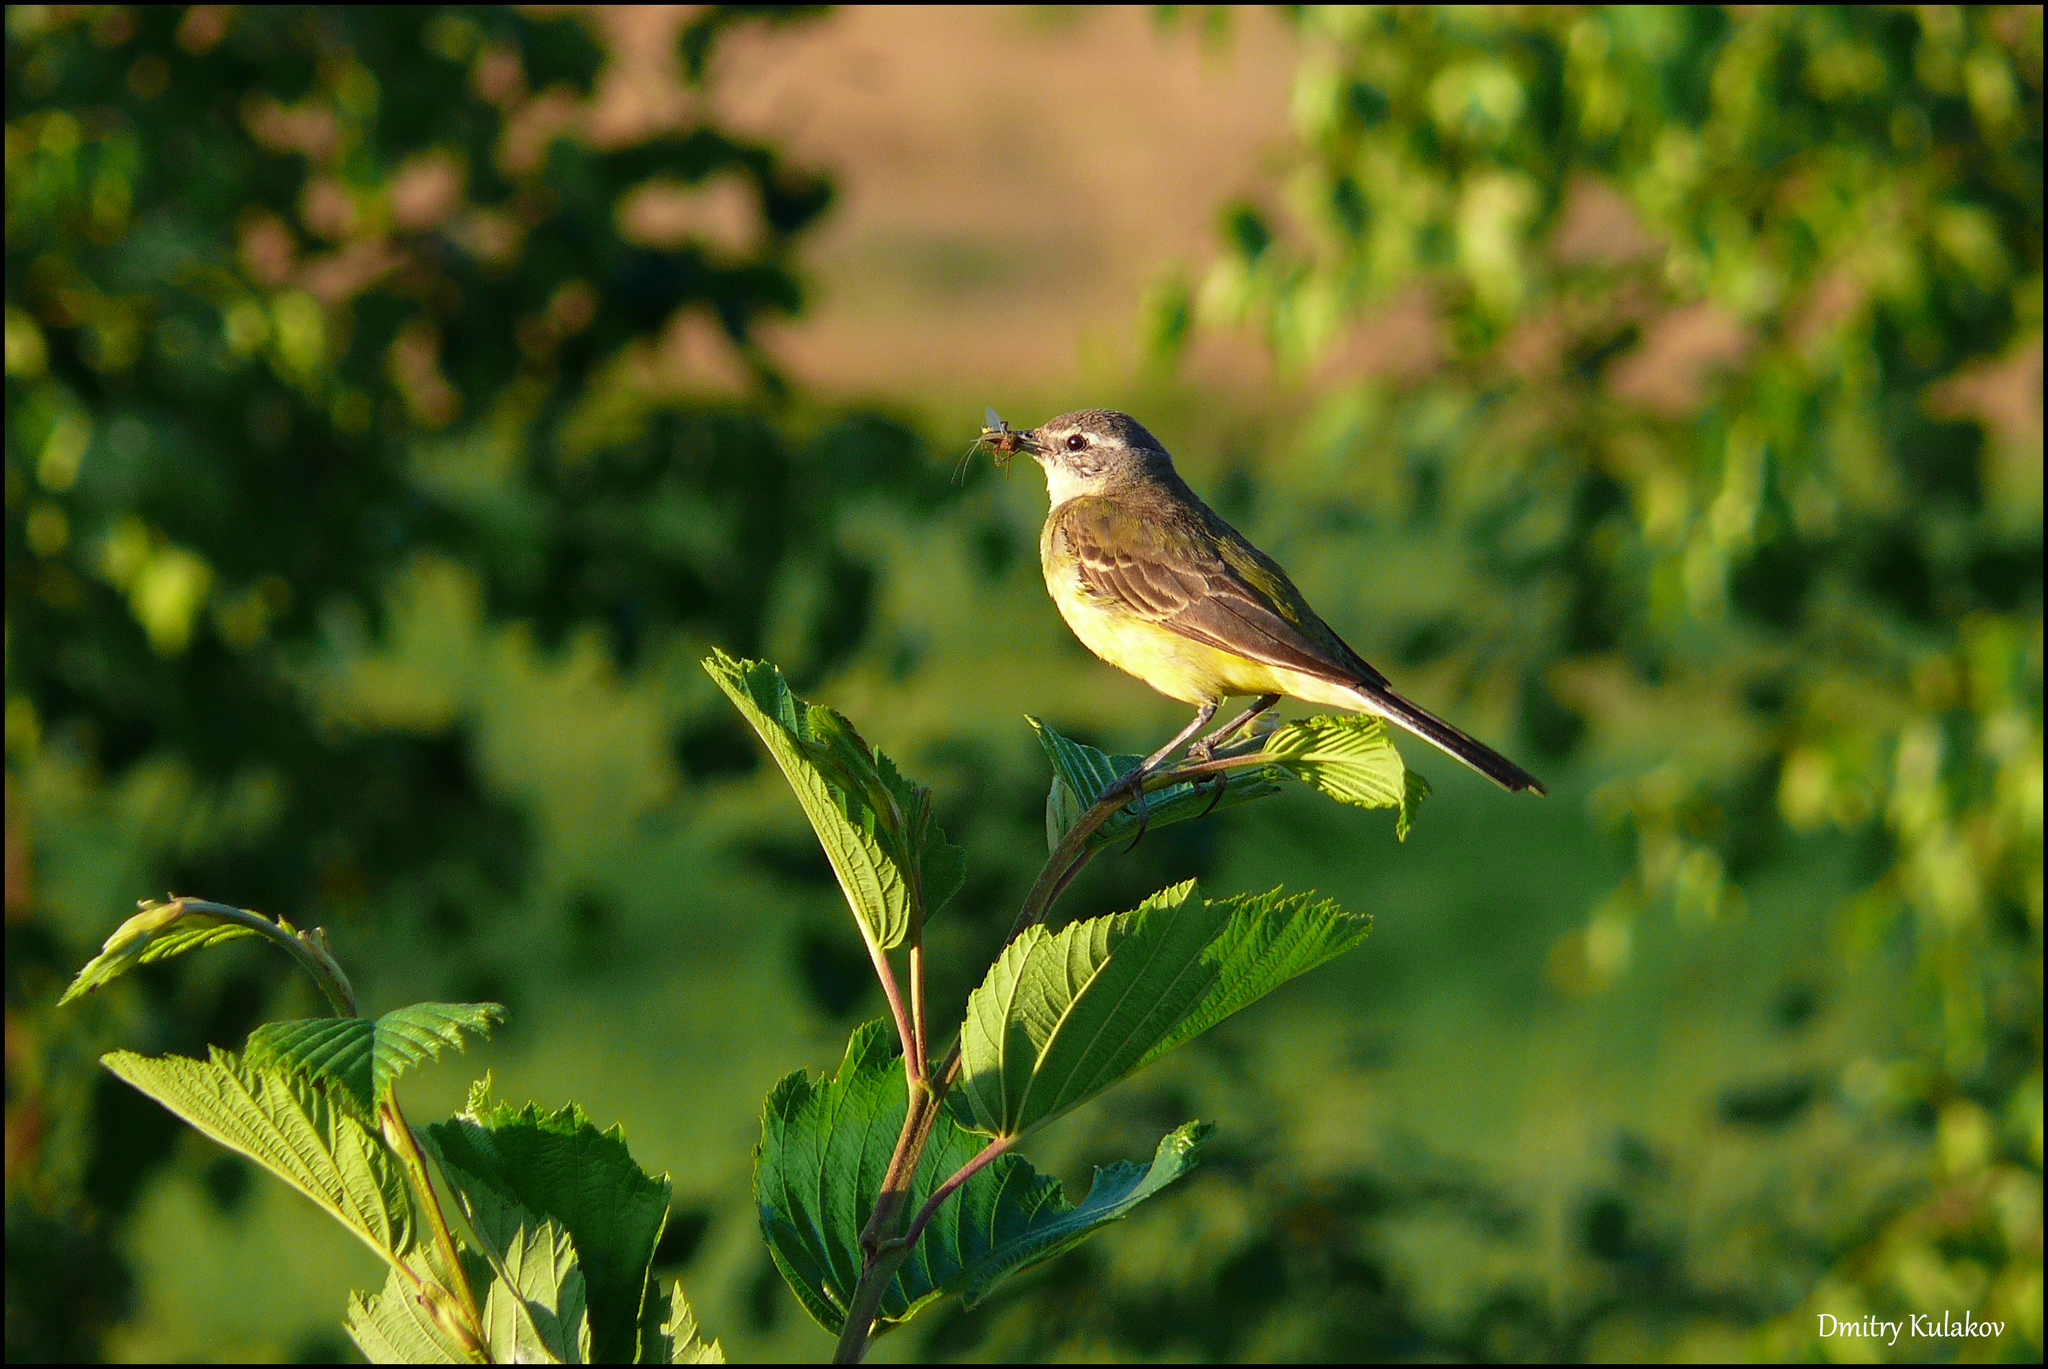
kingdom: Animalia
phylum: Chordata
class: Aves
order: Passeriformes
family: Motacillidae
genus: Motacilla
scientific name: Motacilla flava
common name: Western yellow wagtail
